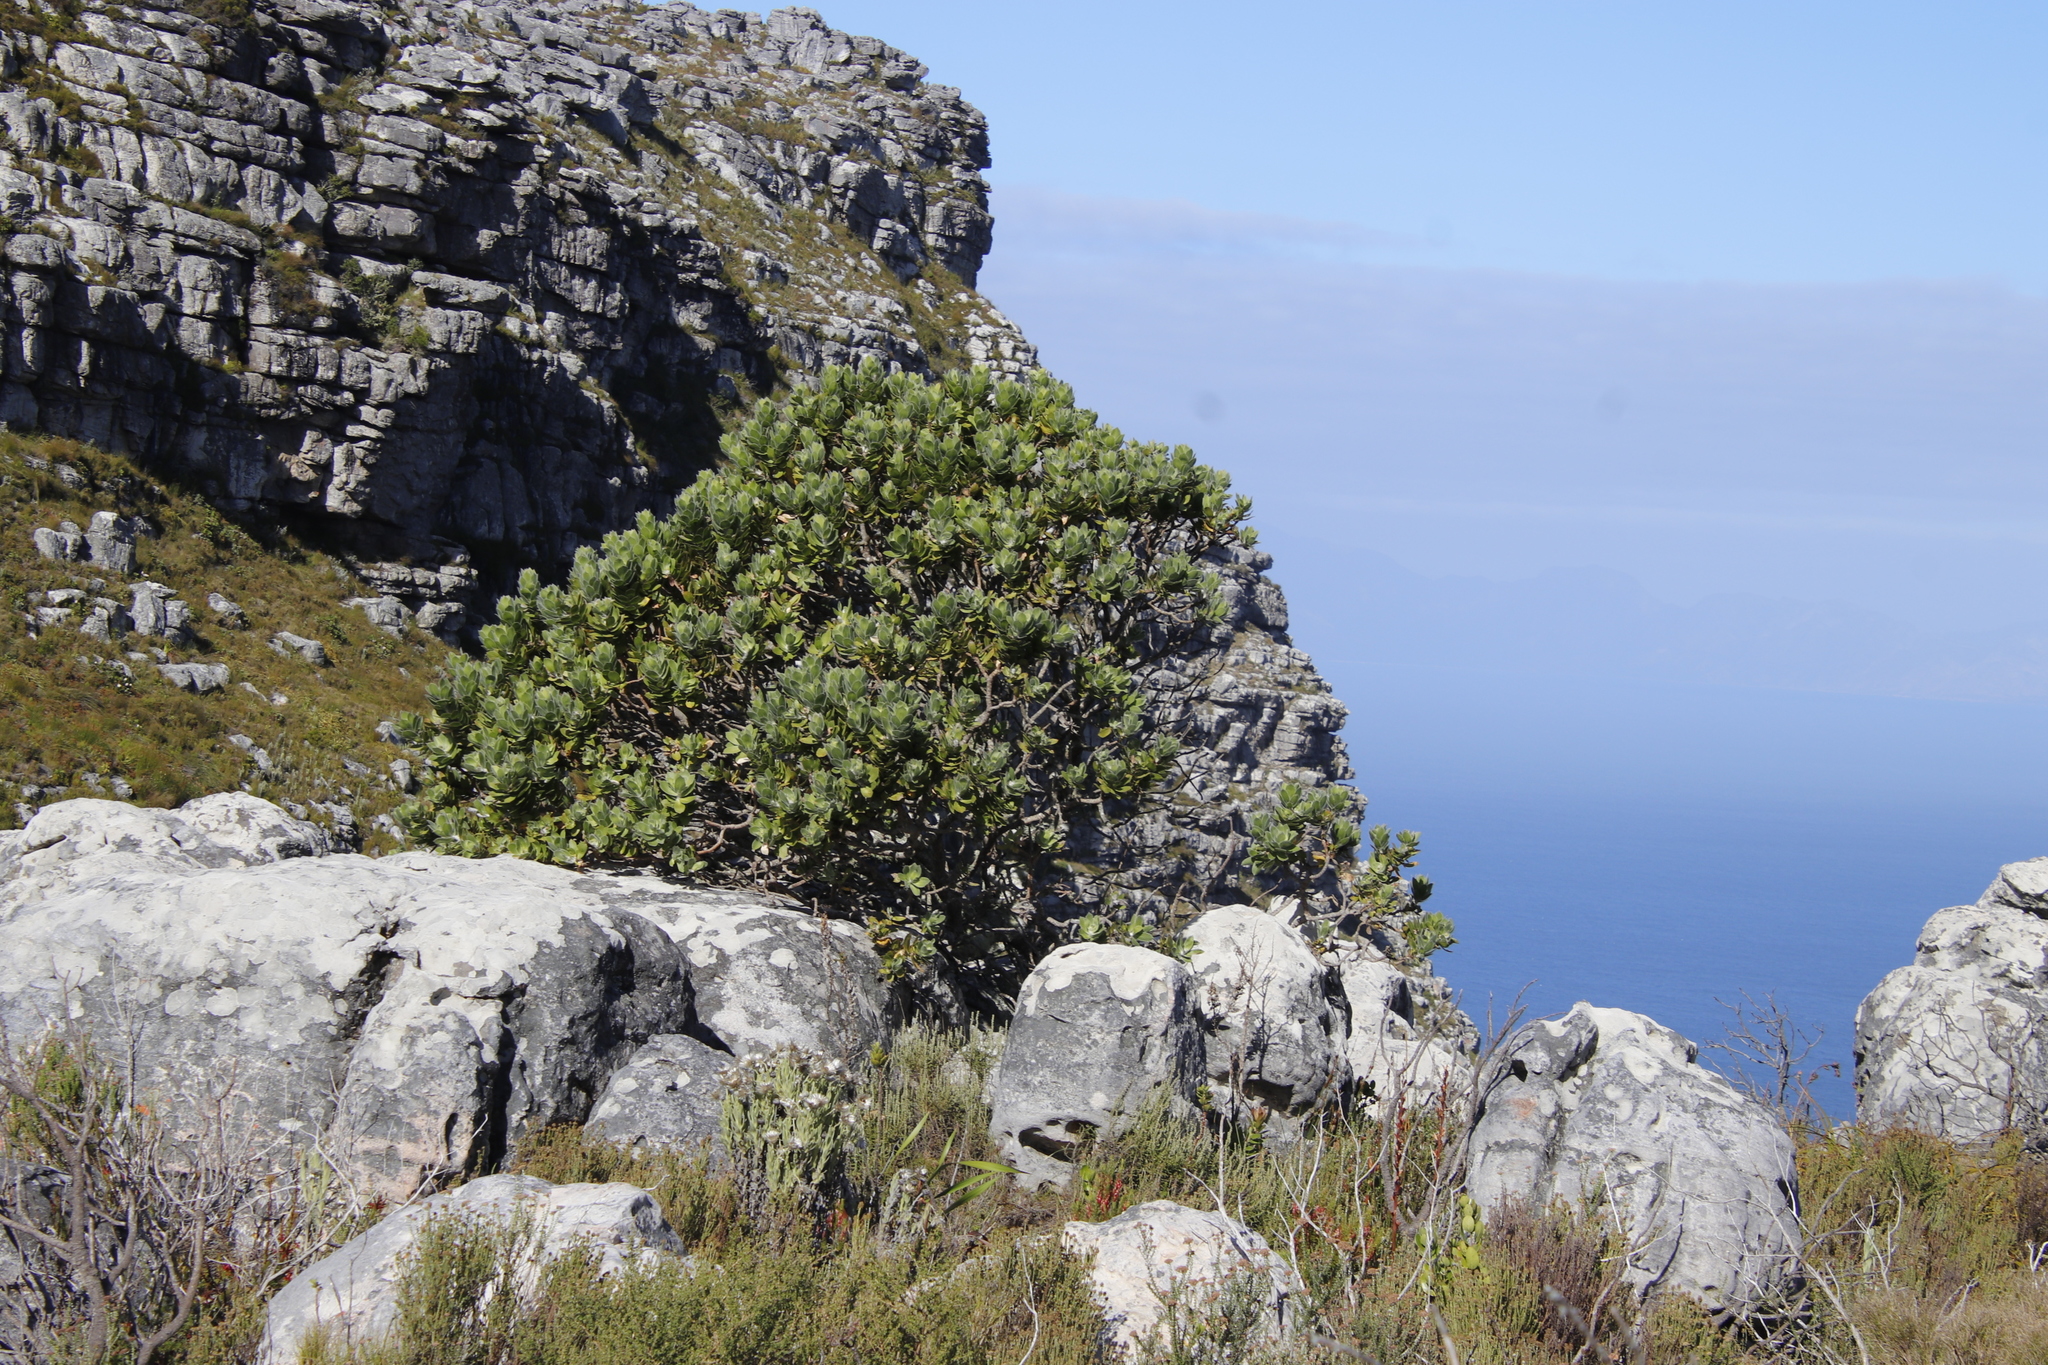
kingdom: Plantae
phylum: Tracheophyta
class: Magnoliopsida
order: Proteales
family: Proteaceae
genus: Leucospermum
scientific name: Leucospermum conocarpodendron
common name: Tree pincushion
